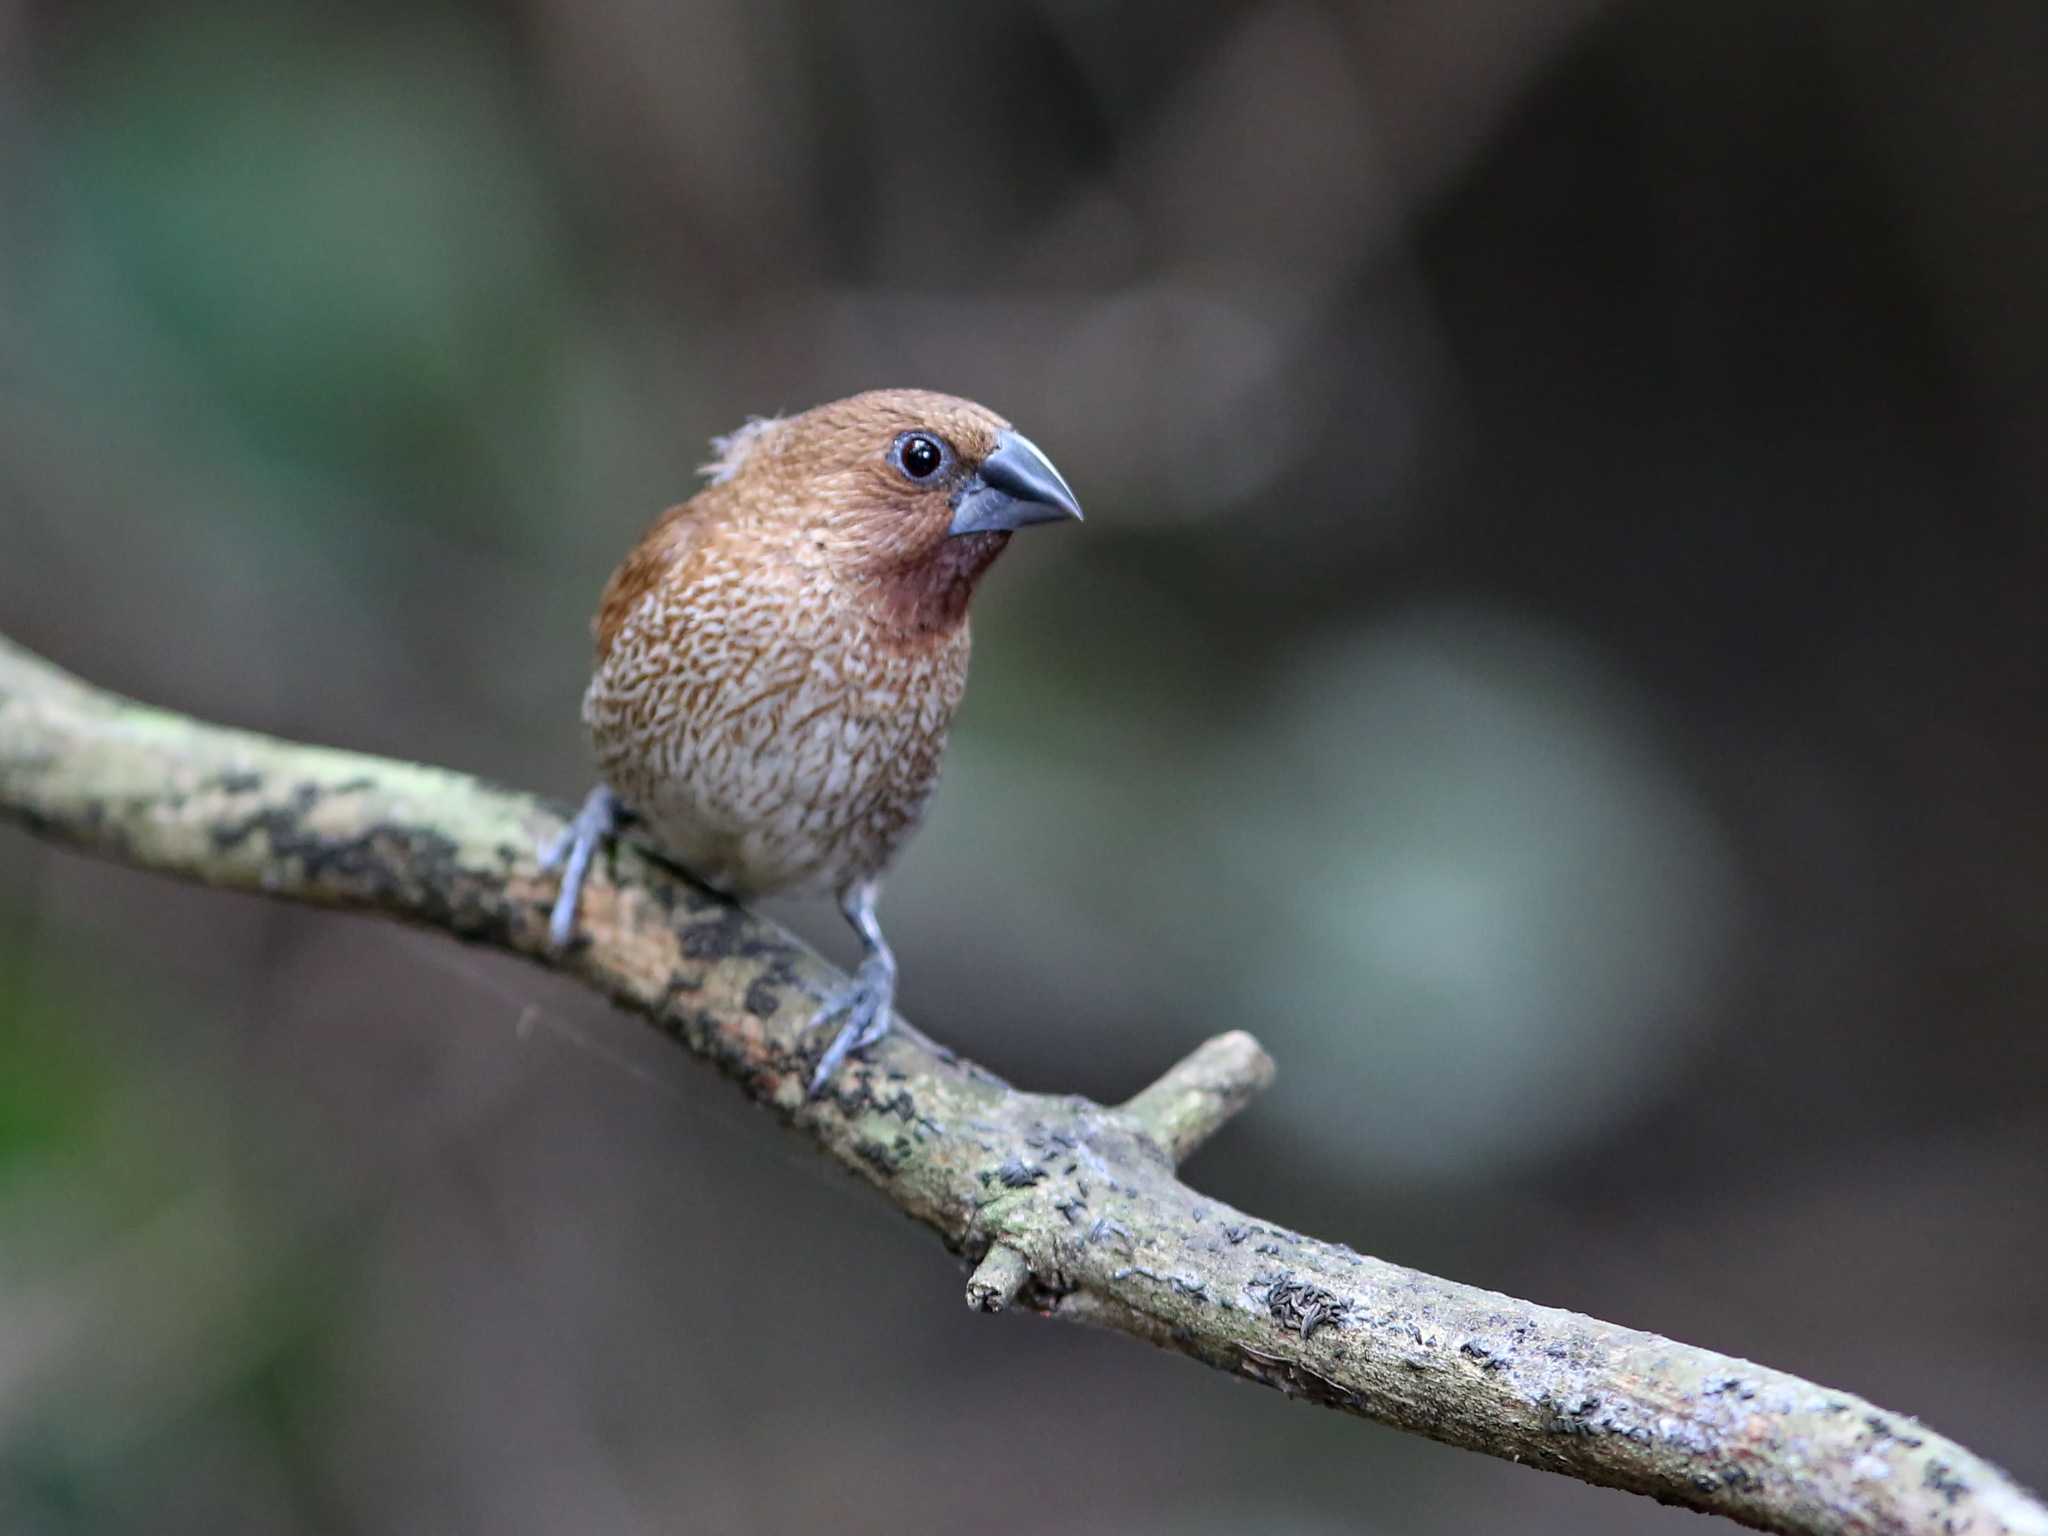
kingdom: Animalia
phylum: Chordata
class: Aves
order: Passeriformes
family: Estrildidae
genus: Lonchura
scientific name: Lonchura punctulata
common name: Scaly-breasted munia
